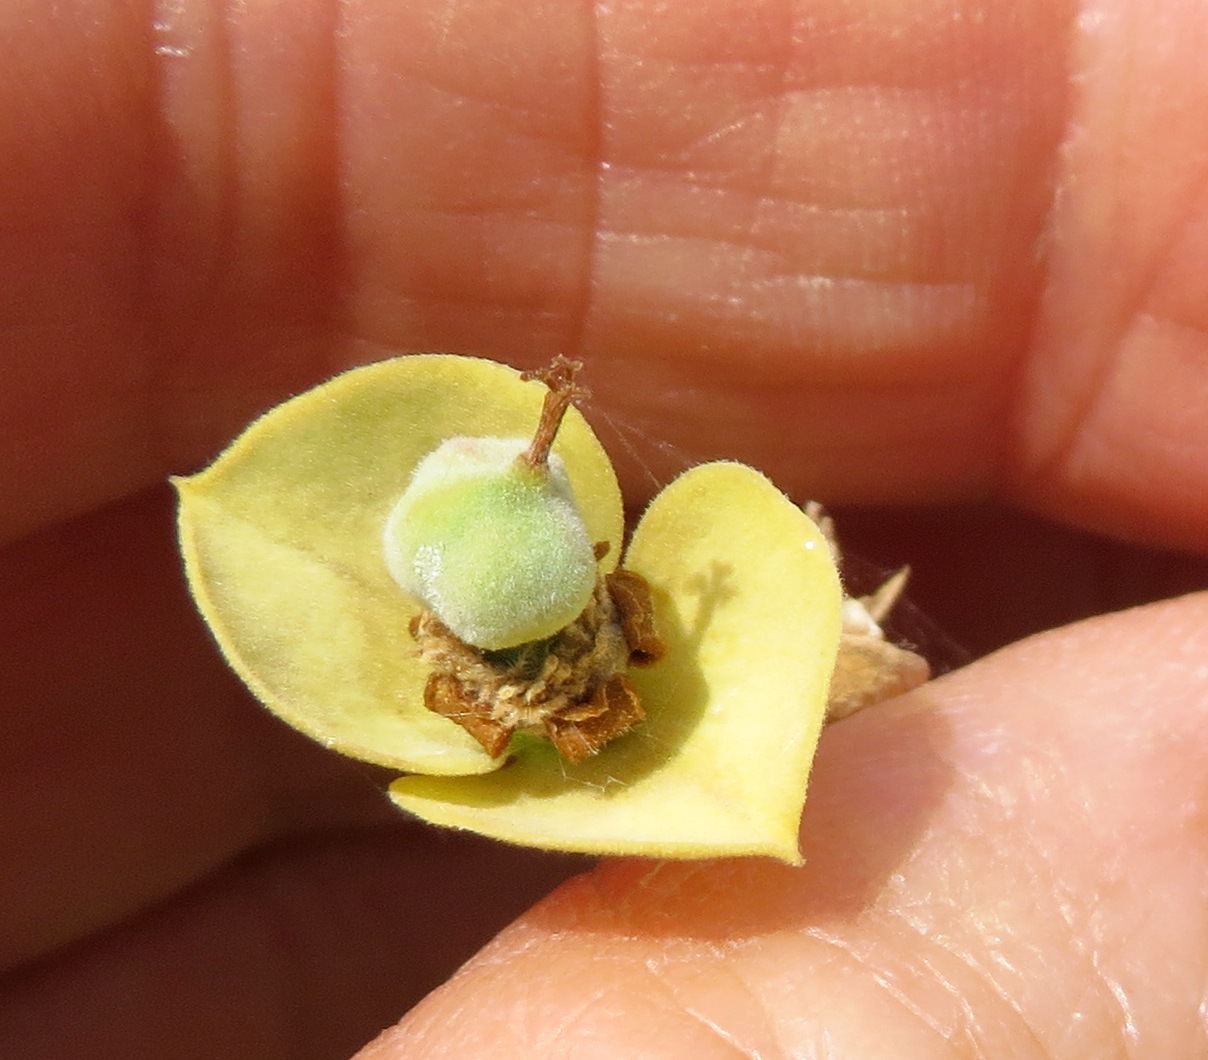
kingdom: Plantae
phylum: Tracheophyta
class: Magnoliopsida
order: Malpighiales
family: Euphorbiaceae
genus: Euphorbia
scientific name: Euphorbia dregeana
